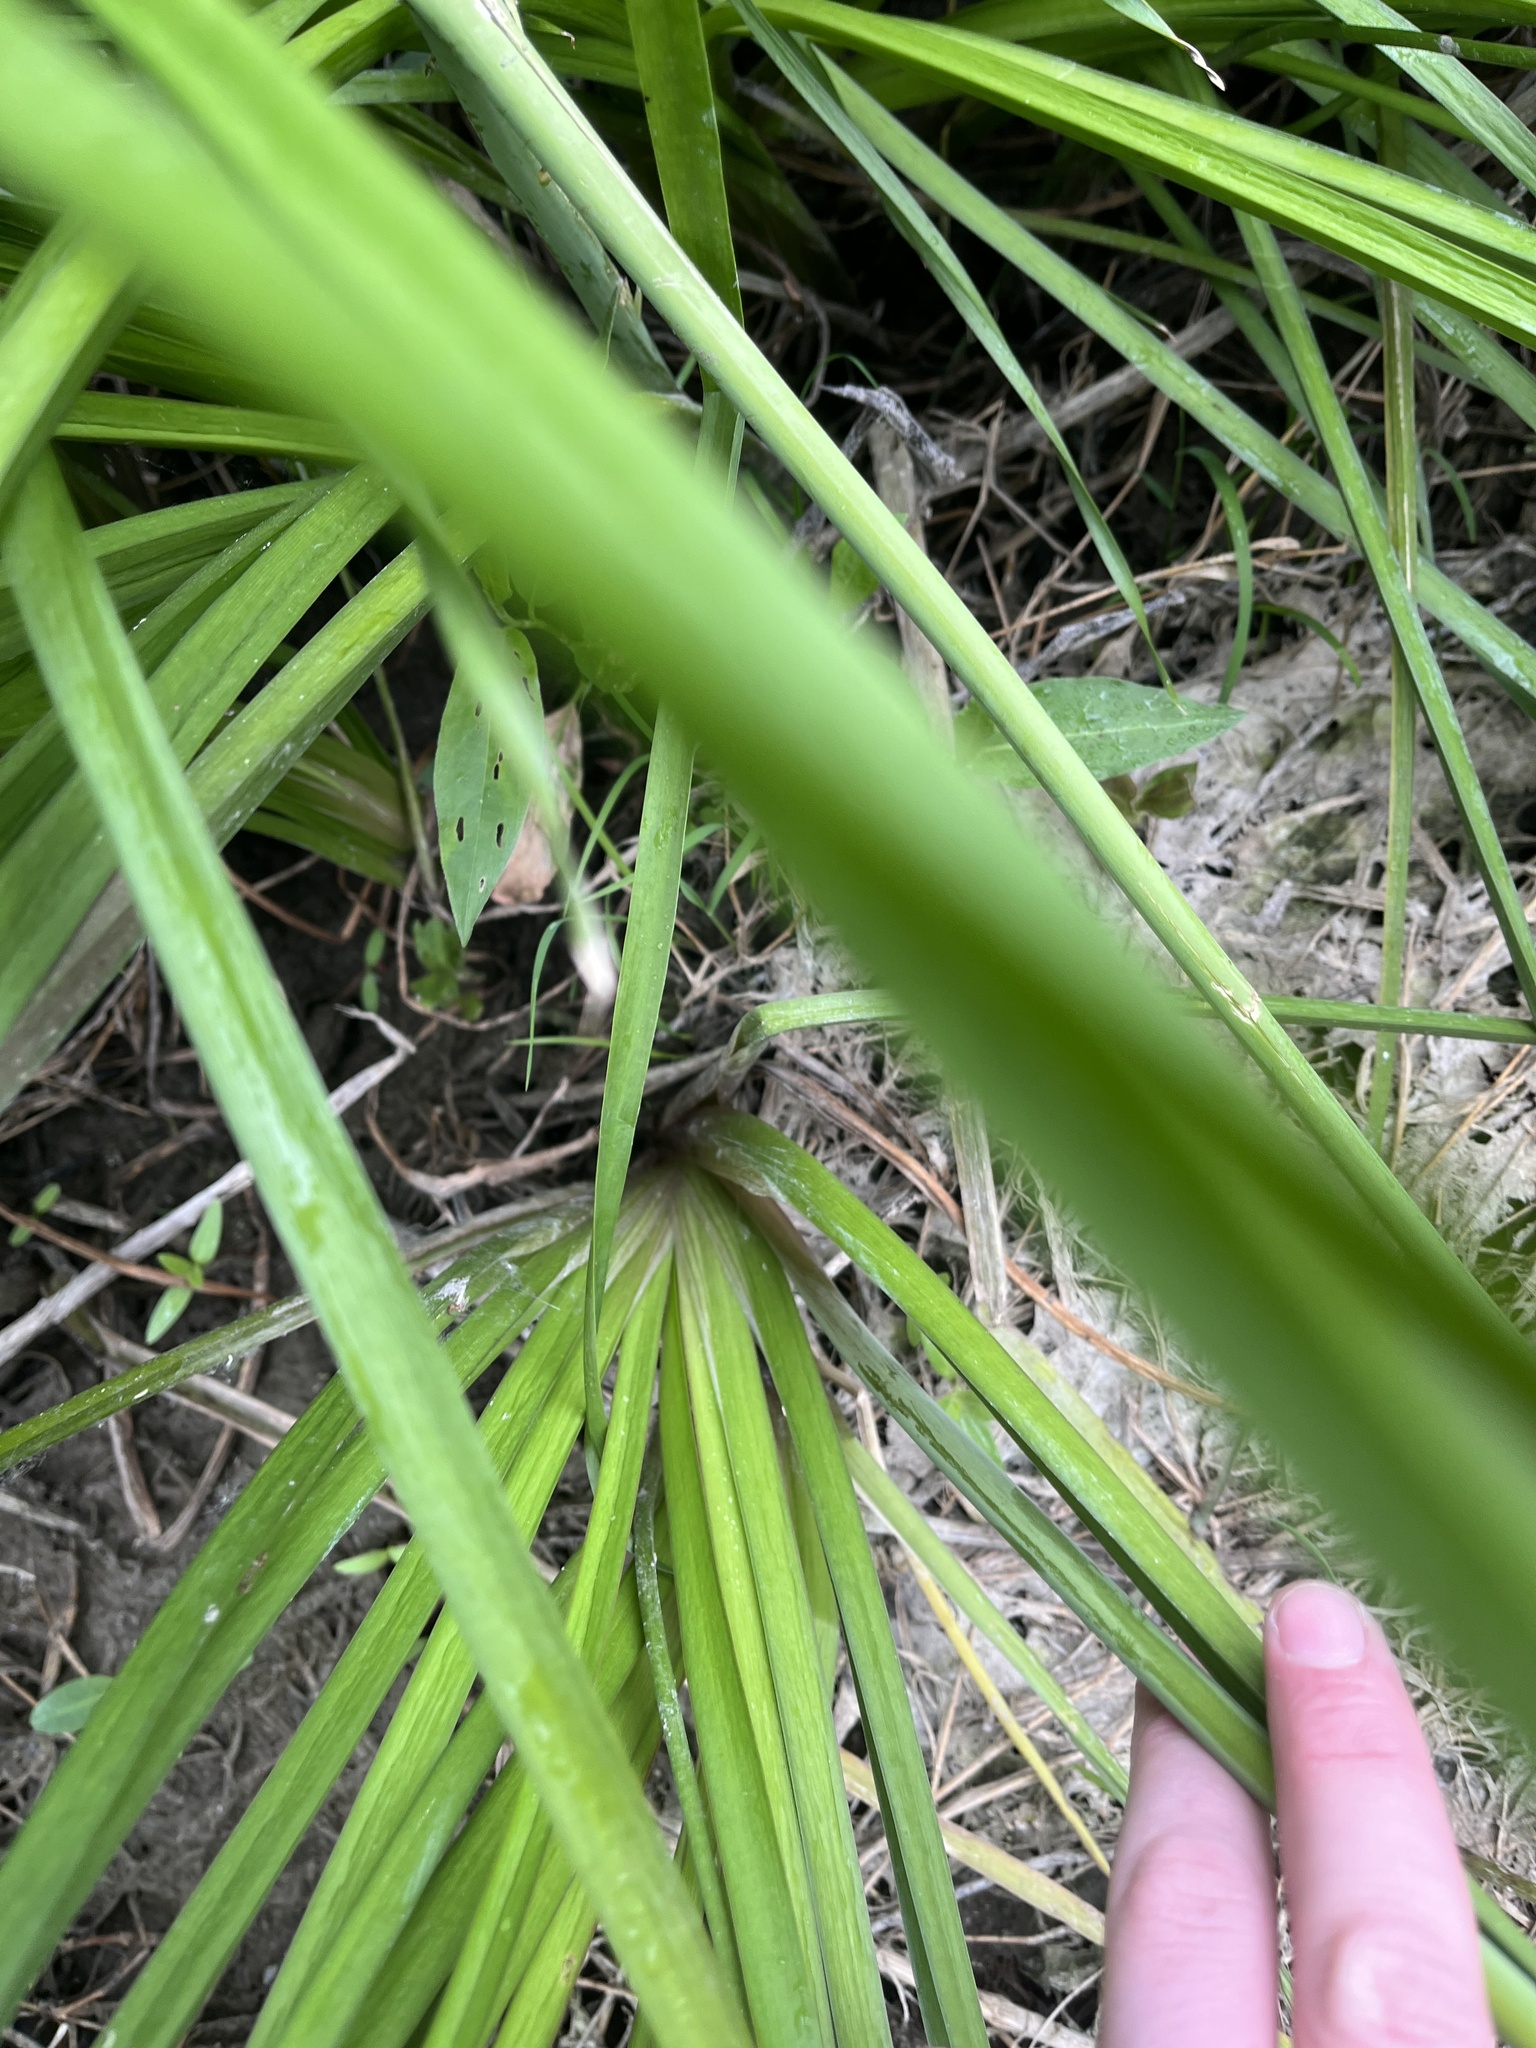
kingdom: Plantae
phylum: Tracheophyta
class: Liliopsida
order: Alismatales
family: Butomaceae
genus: Butomus
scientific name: Butomus umbellatus
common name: Flowering-rush
